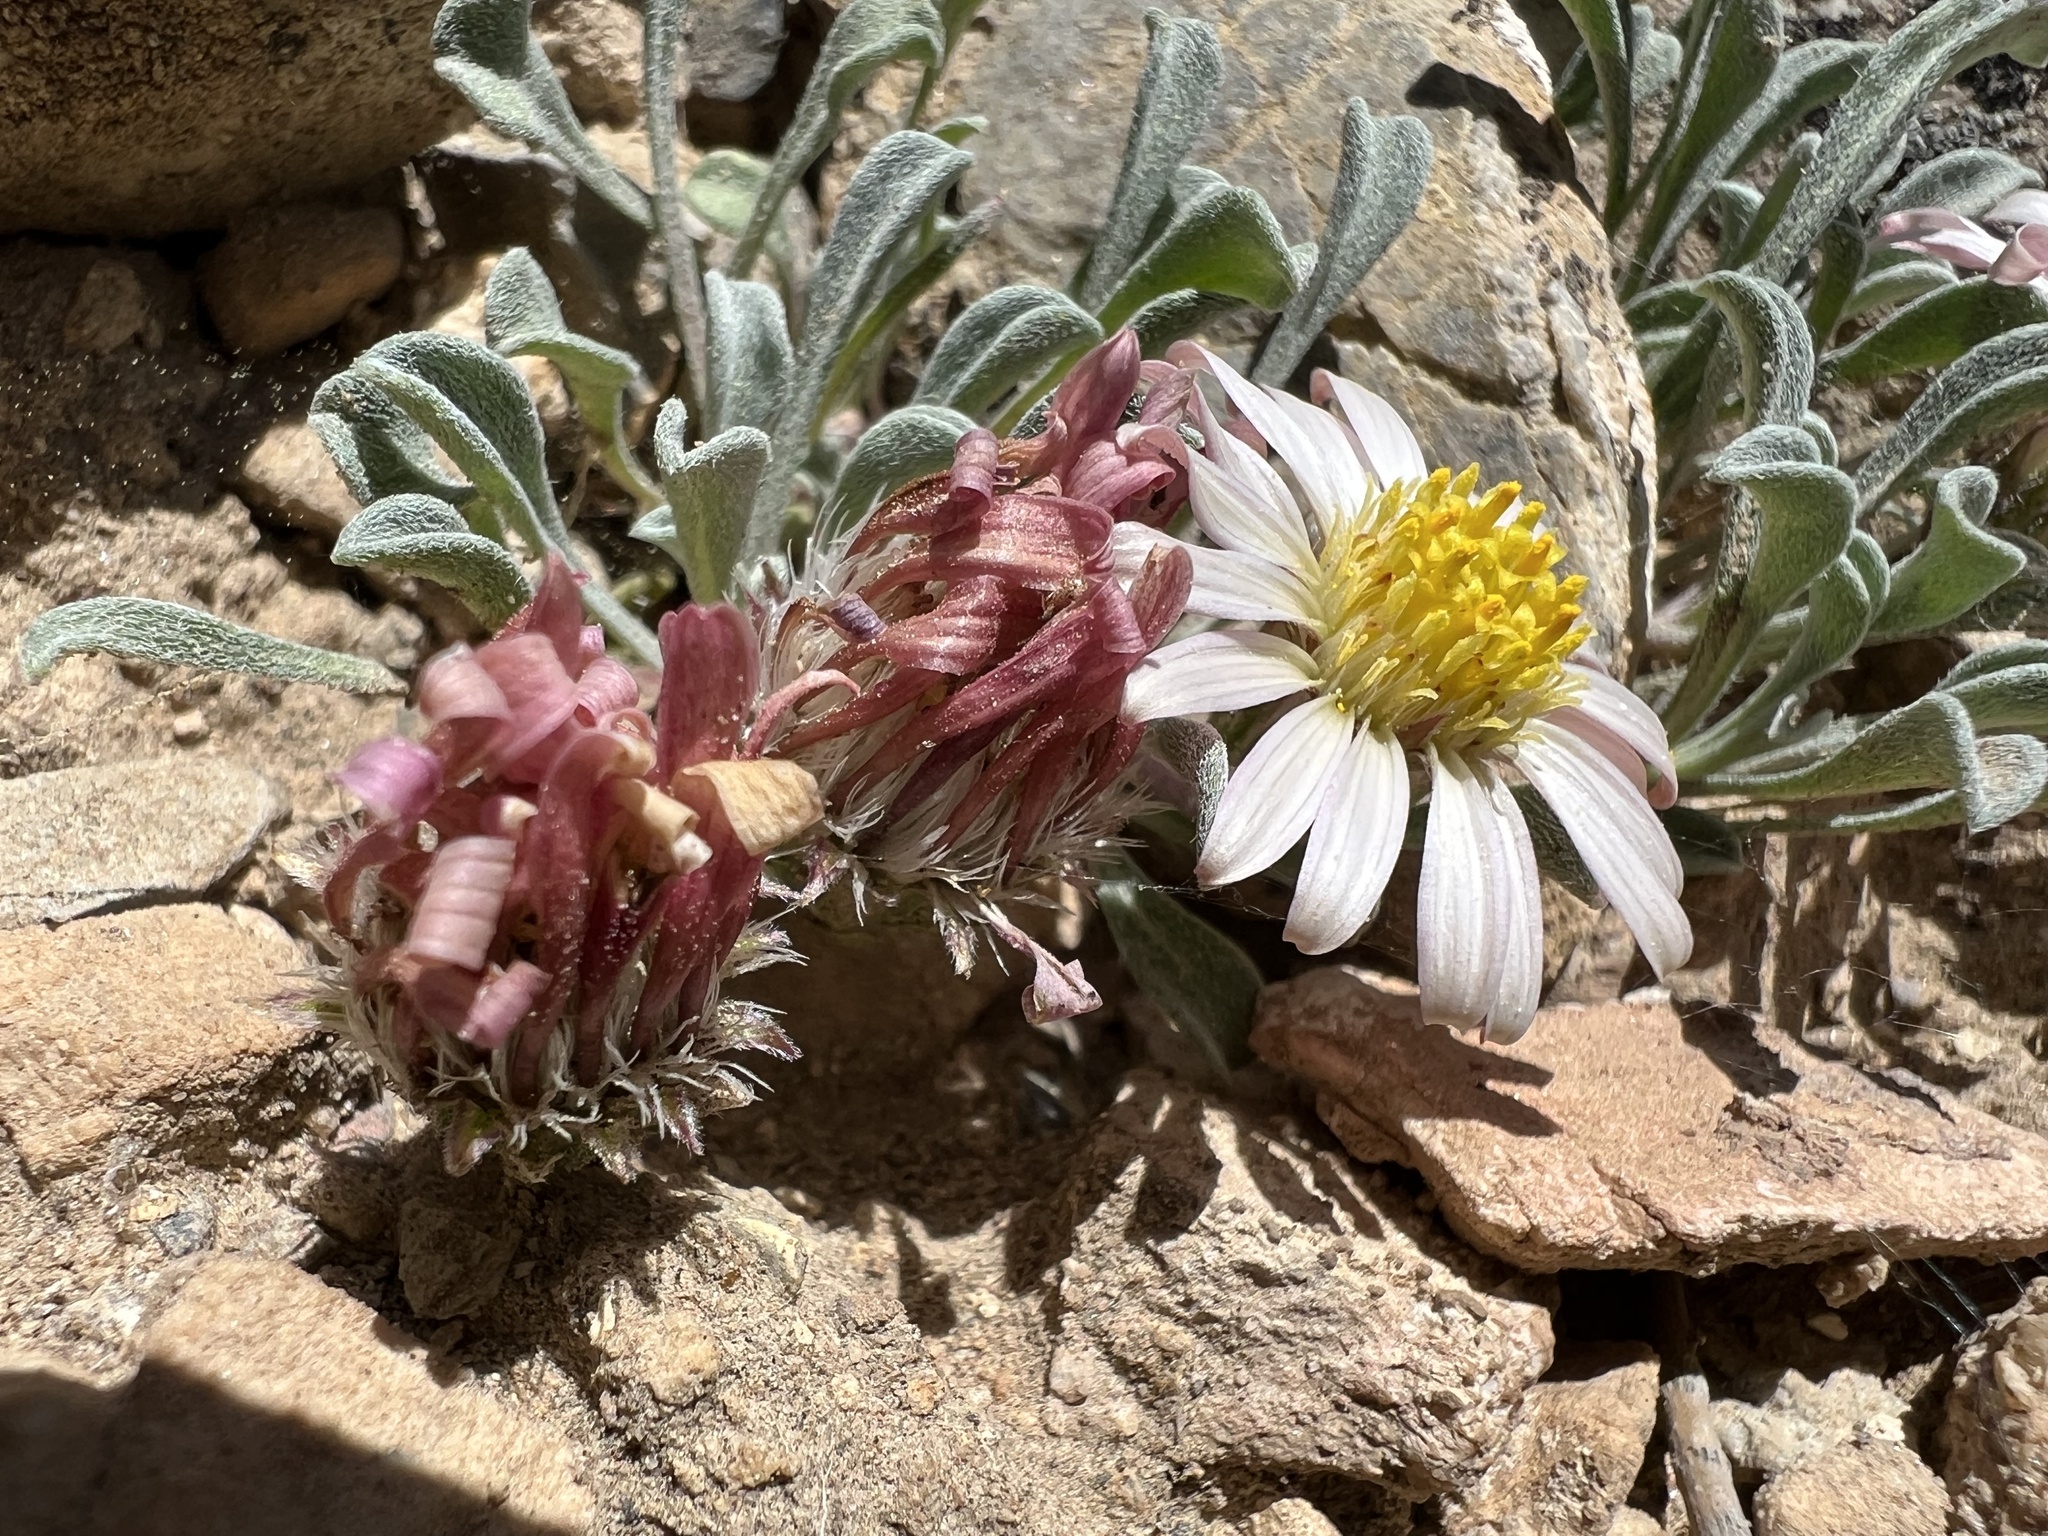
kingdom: Plantae
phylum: Tracheophyta
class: Magnoliopsida
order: Asterales
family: Asteraceae
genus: Townsendia
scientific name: Townsendia scapigera
